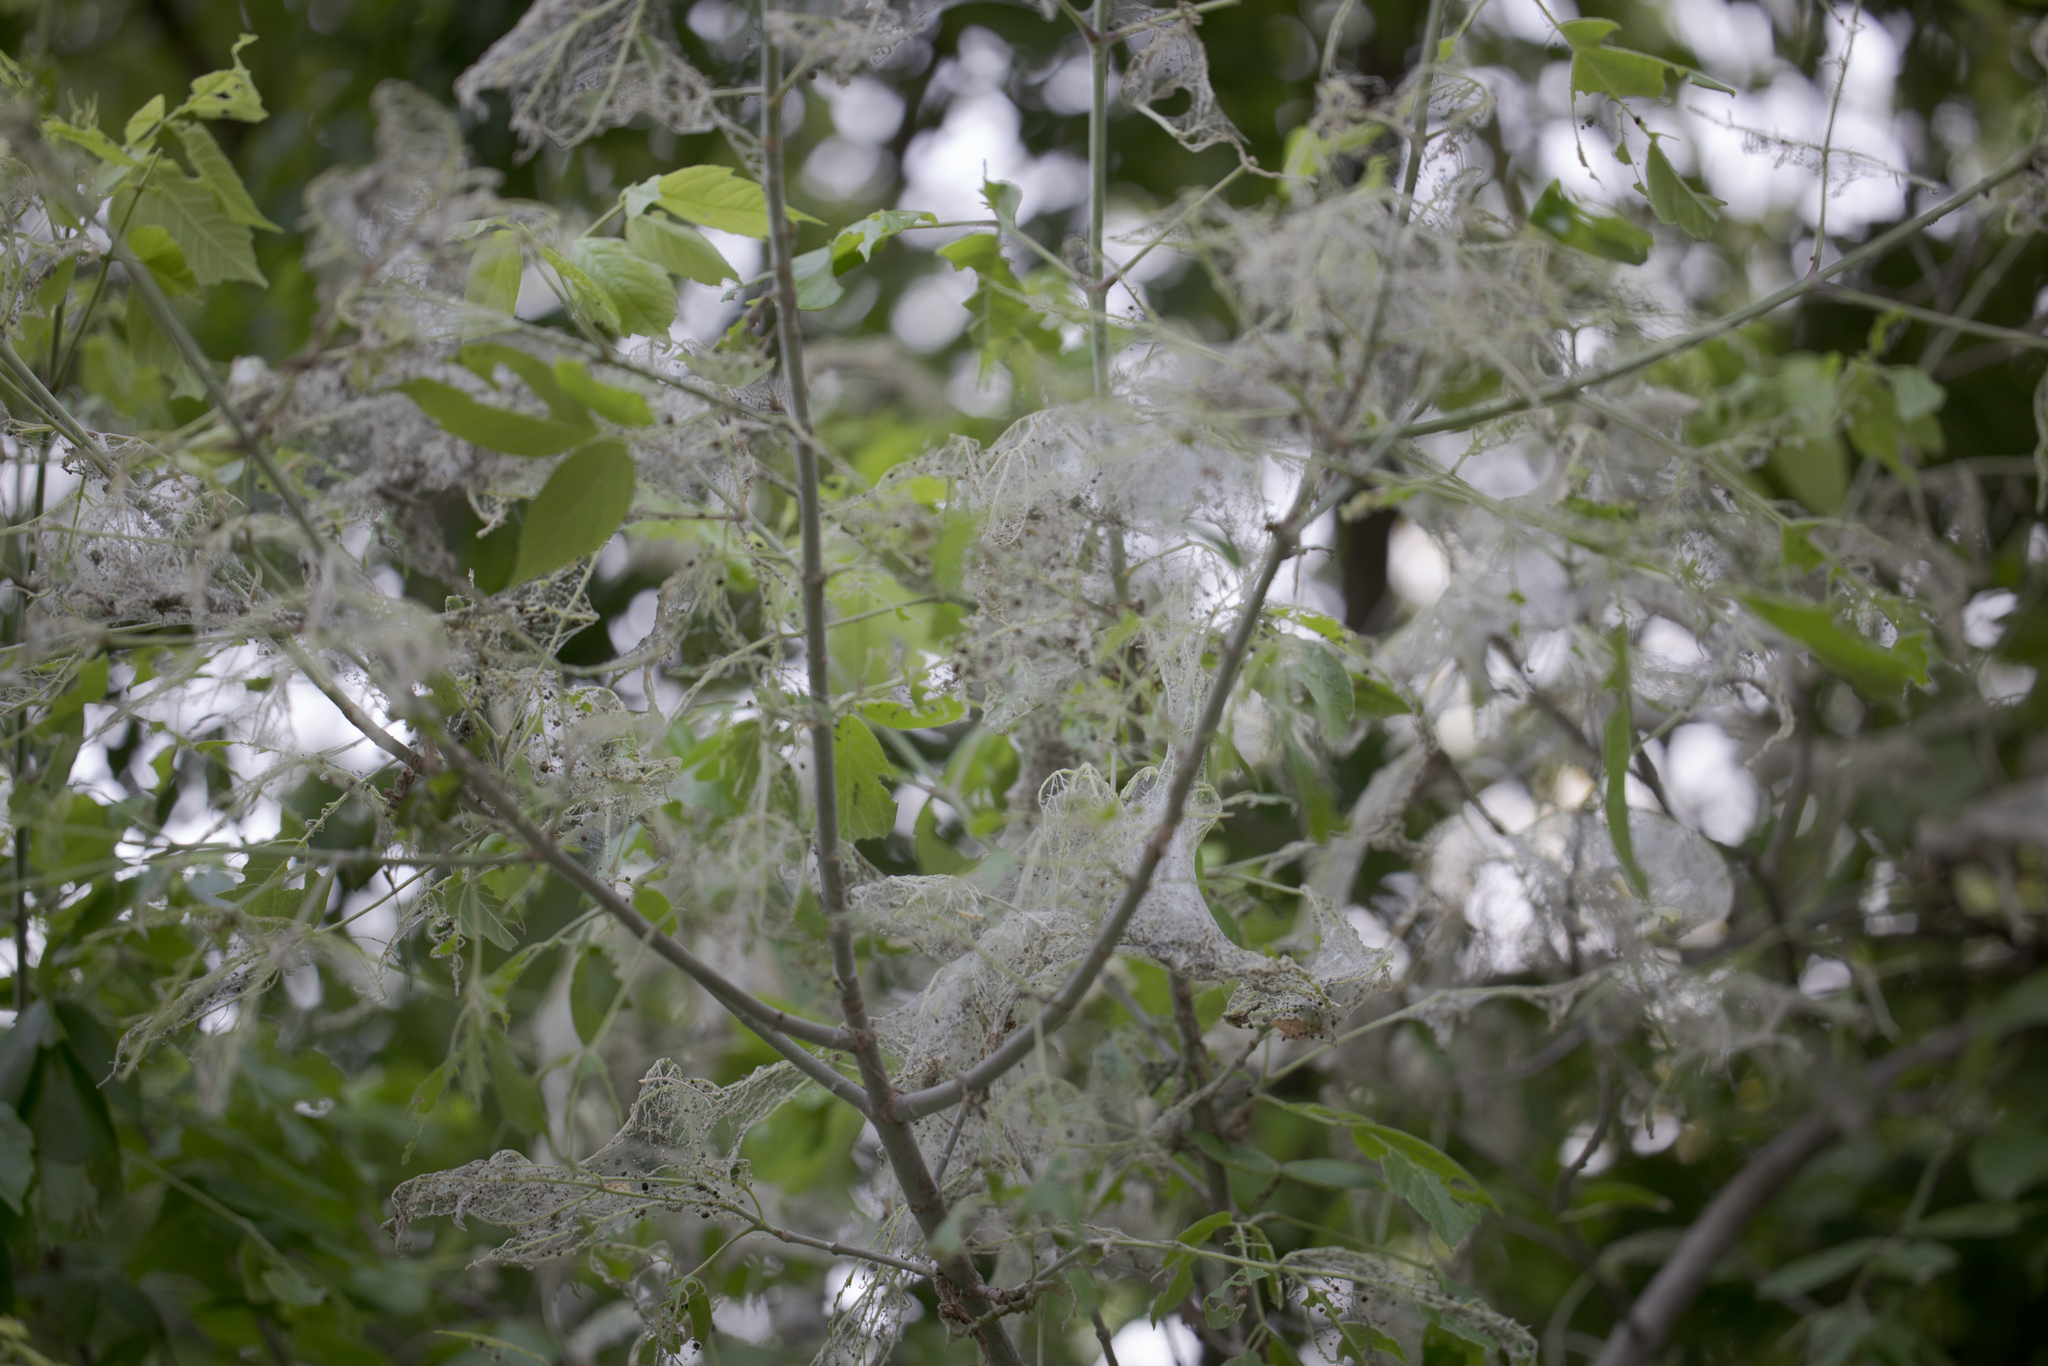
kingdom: Animalia
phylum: Arthropoda
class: Insecta
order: Hymenoptera
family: Formicidae
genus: Atta
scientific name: Atta texana
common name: Texas leafcutting ant
